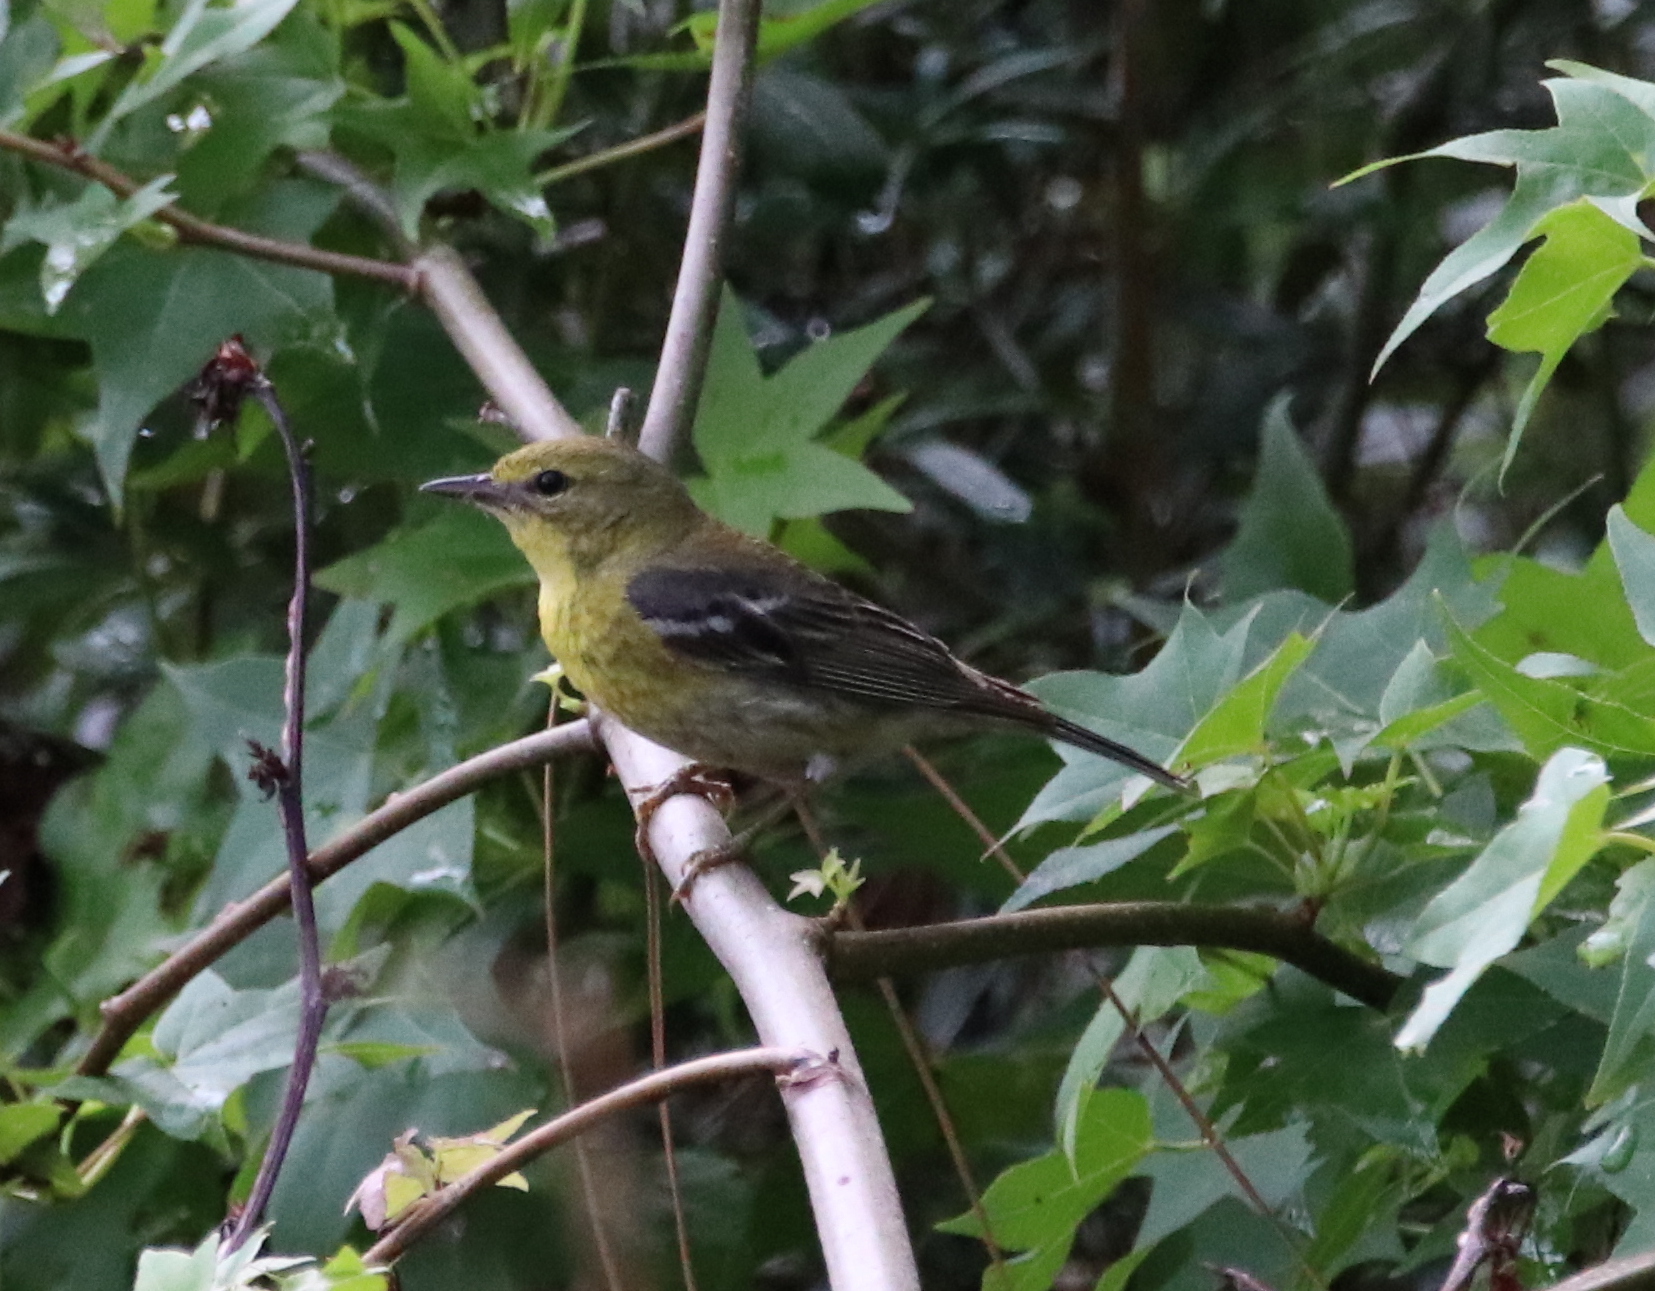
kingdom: Animalia
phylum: Chordata
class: Aves
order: Passeriformes
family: Parulidae
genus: Setophaga
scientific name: Setophaga pinus
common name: Pine warbler
